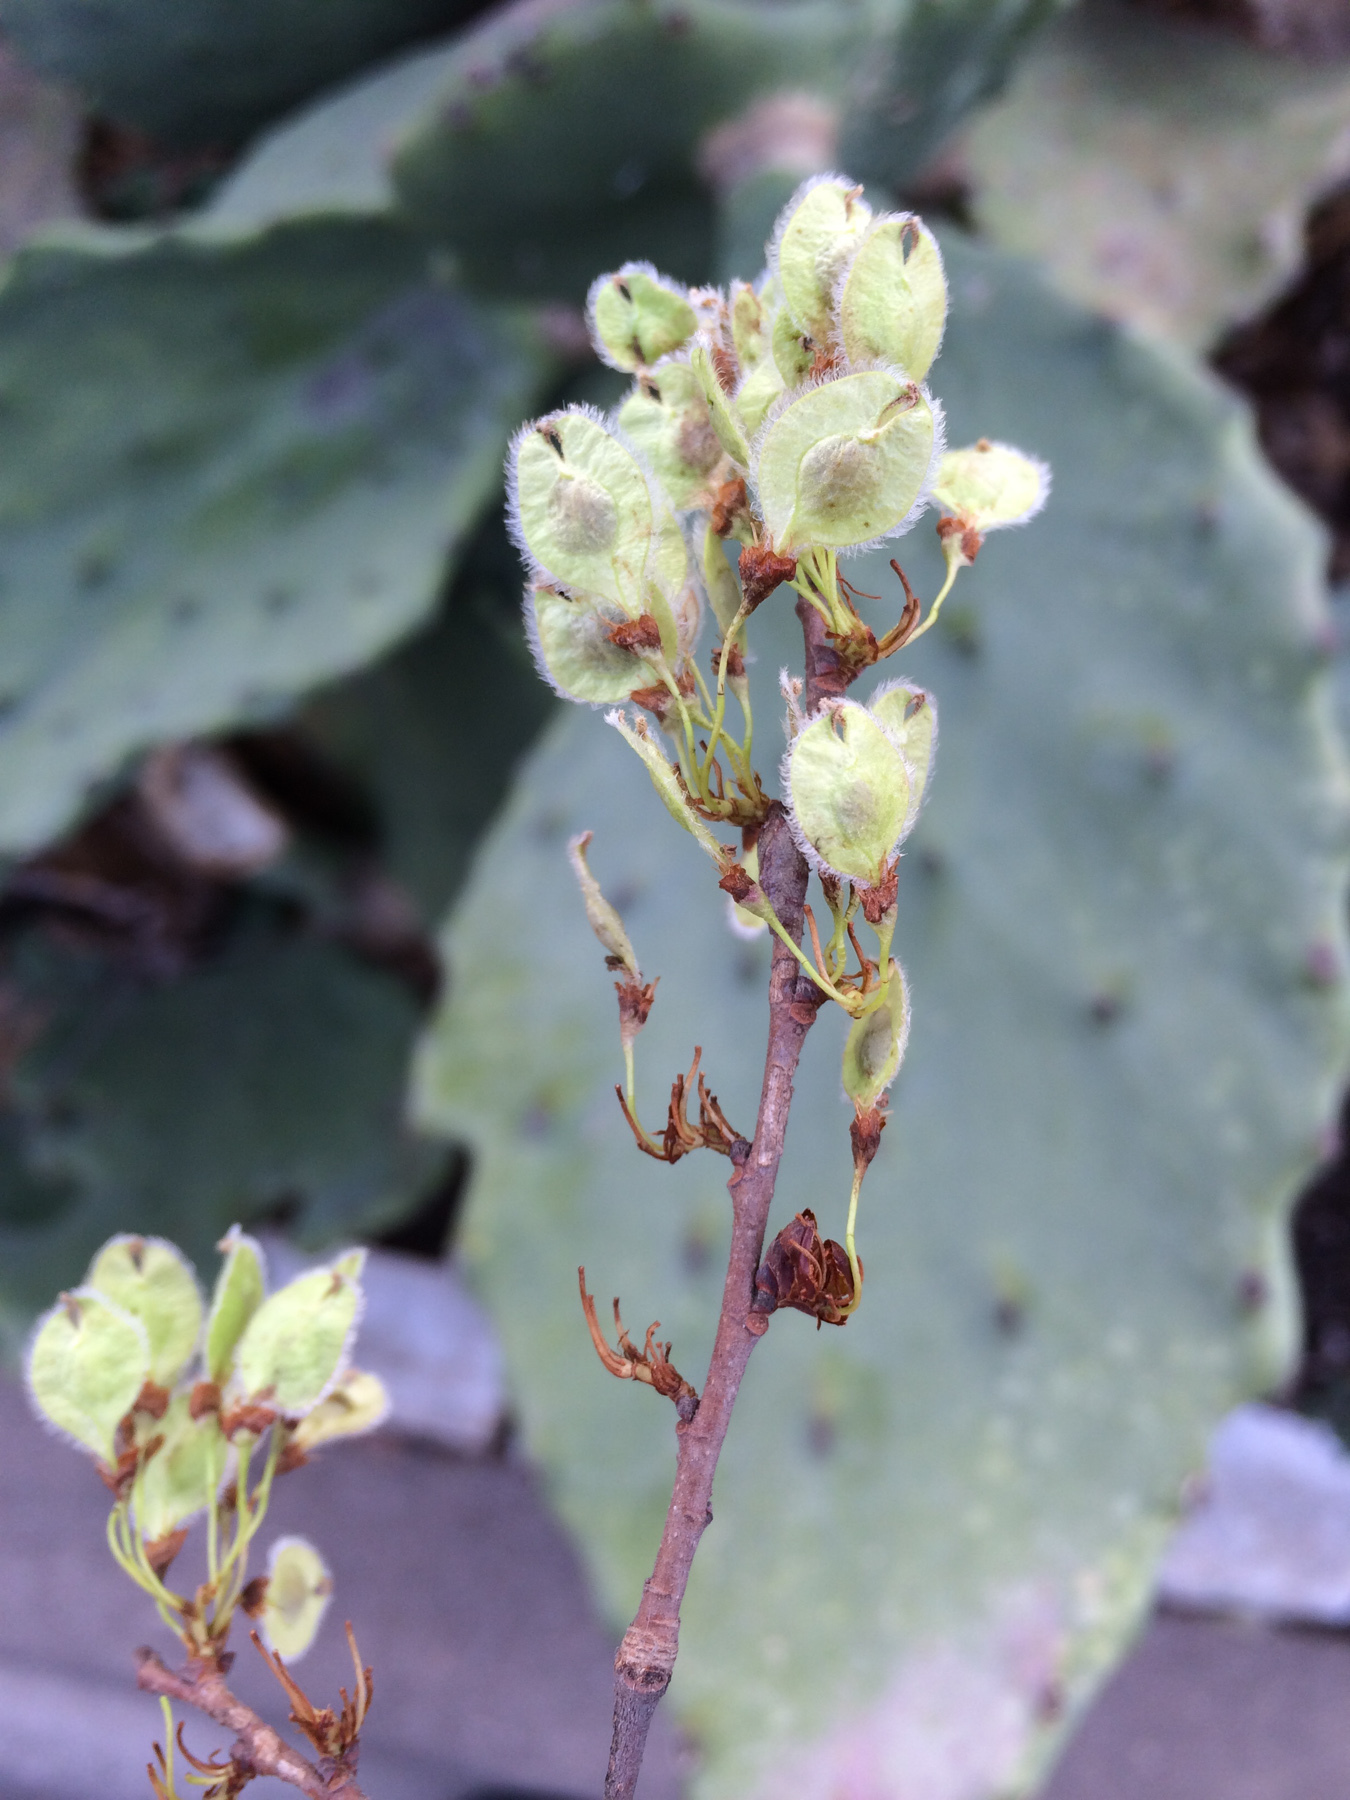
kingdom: Plantae
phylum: Tracheophyta
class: Magnoliopsida
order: Rosales
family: Ulmaceae
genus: Ulmus
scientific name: Ulmus americana
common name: American elm
